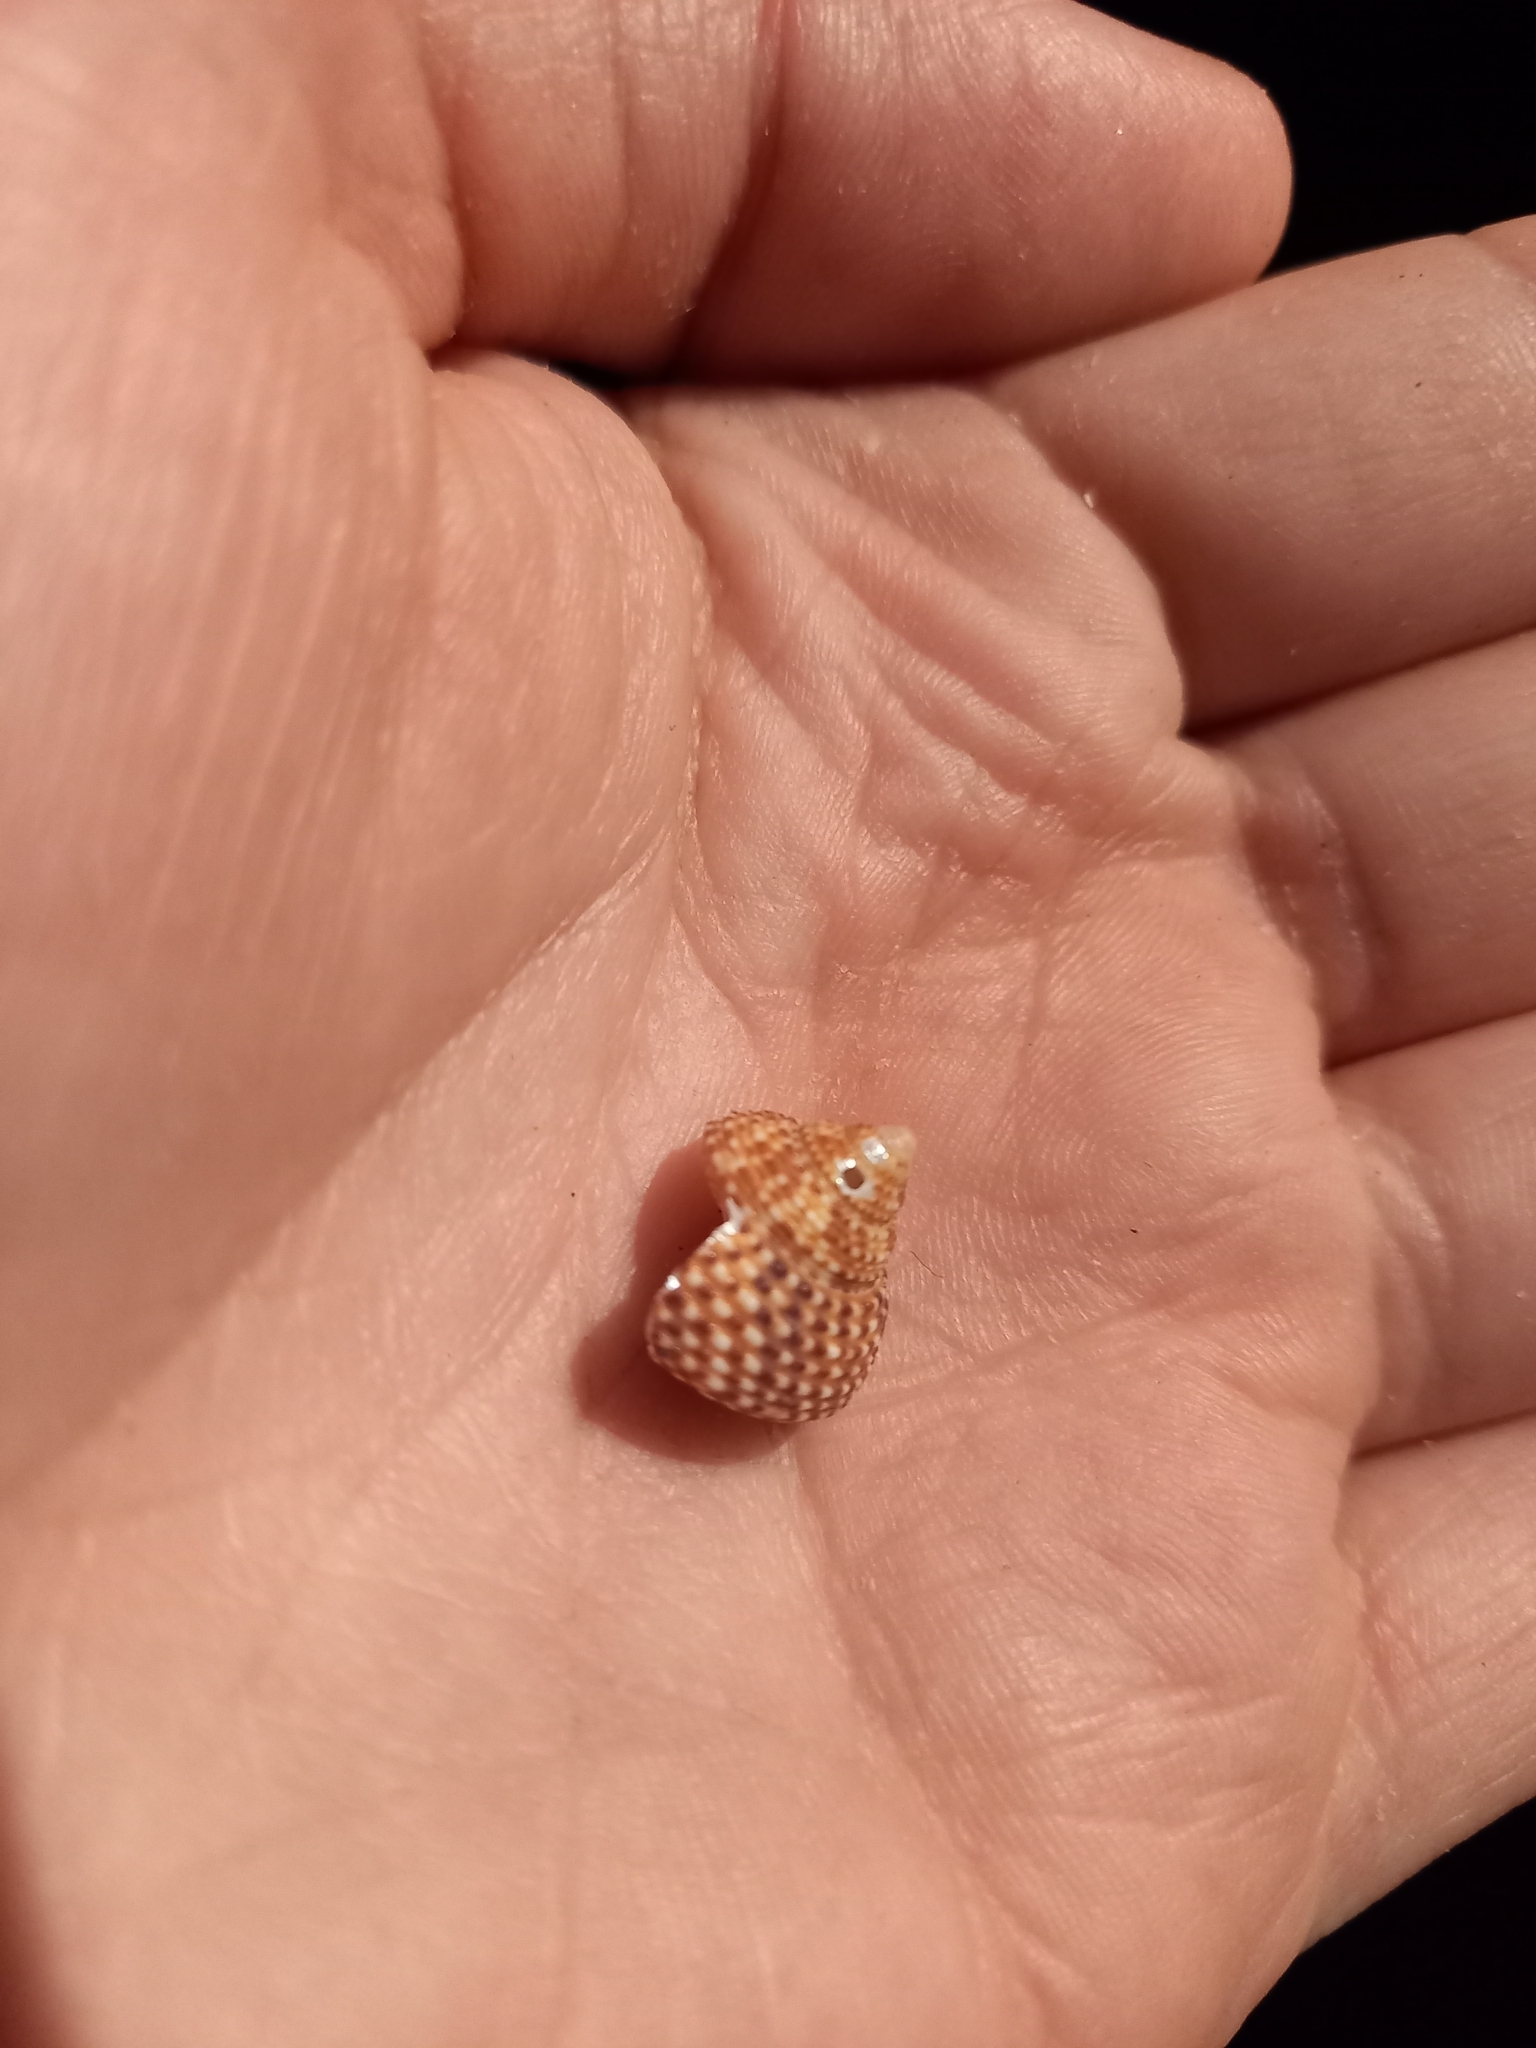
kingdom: Animalia
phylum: Mollusca
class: Gastropoda
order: Trochida
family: Calliostomatidae
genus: Maurea
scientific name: Maurea punctulata
